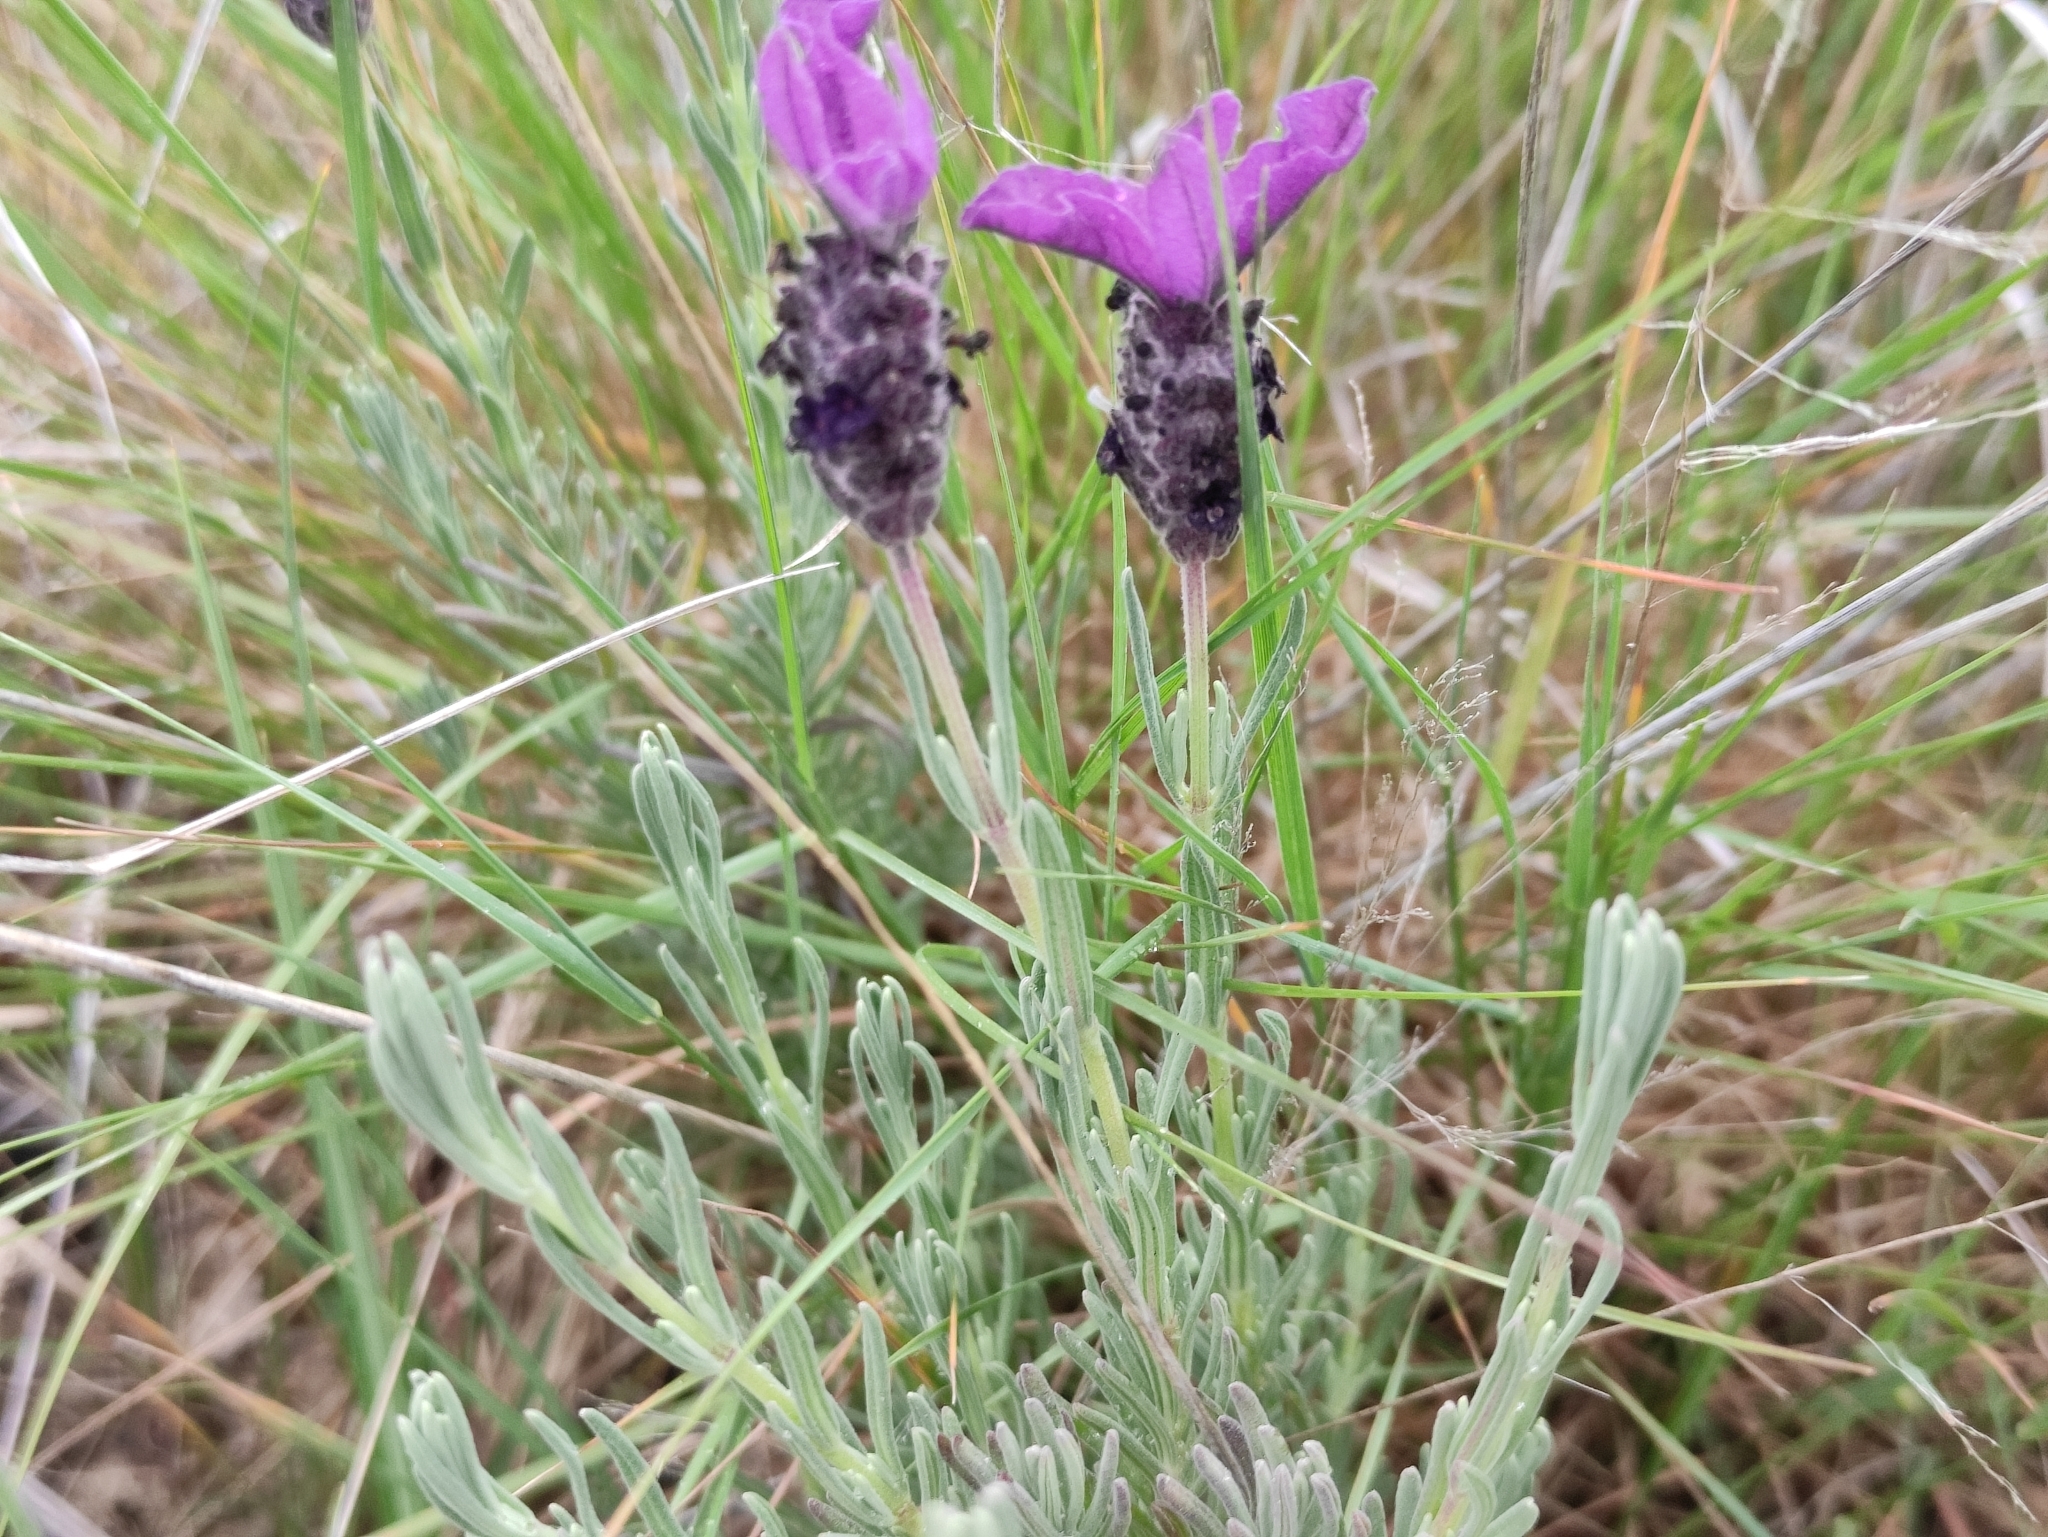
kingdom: Plantae
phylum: Tracheophyta
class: Magnoliopsida
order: Lamiales
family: Lamiaceae
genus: Lavandula
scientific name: Lavandula stoechas
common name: French lavender
